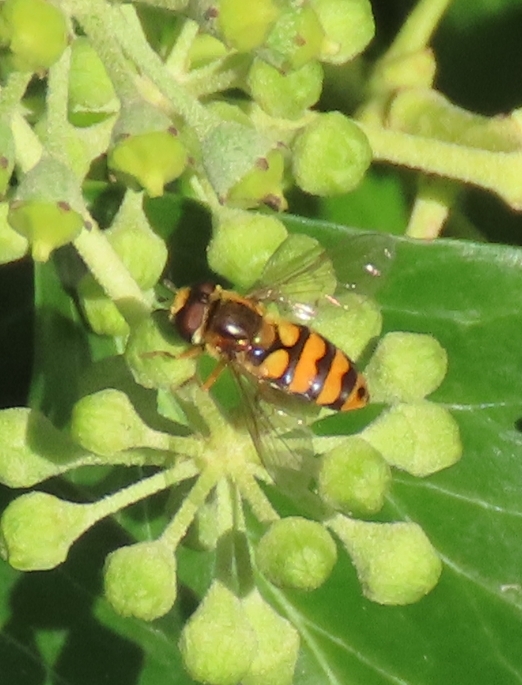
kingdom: Animalia
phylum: Arthropoda
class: Insecta
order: Diptera
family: Syrphidae
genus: Eupeodes
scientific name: Eupeodes latifasciatus
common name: Variable aphideater
